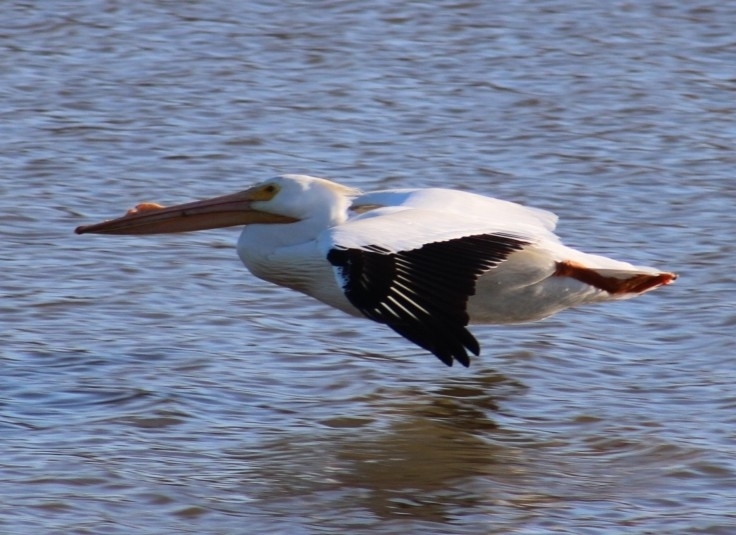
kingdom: Animalia
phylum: Chordata
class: Aves
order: Pelecaniformes
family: Pelecanidae
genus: Pelecanus
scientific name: Pelecanus erythrorhynchos
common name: American white pelican
